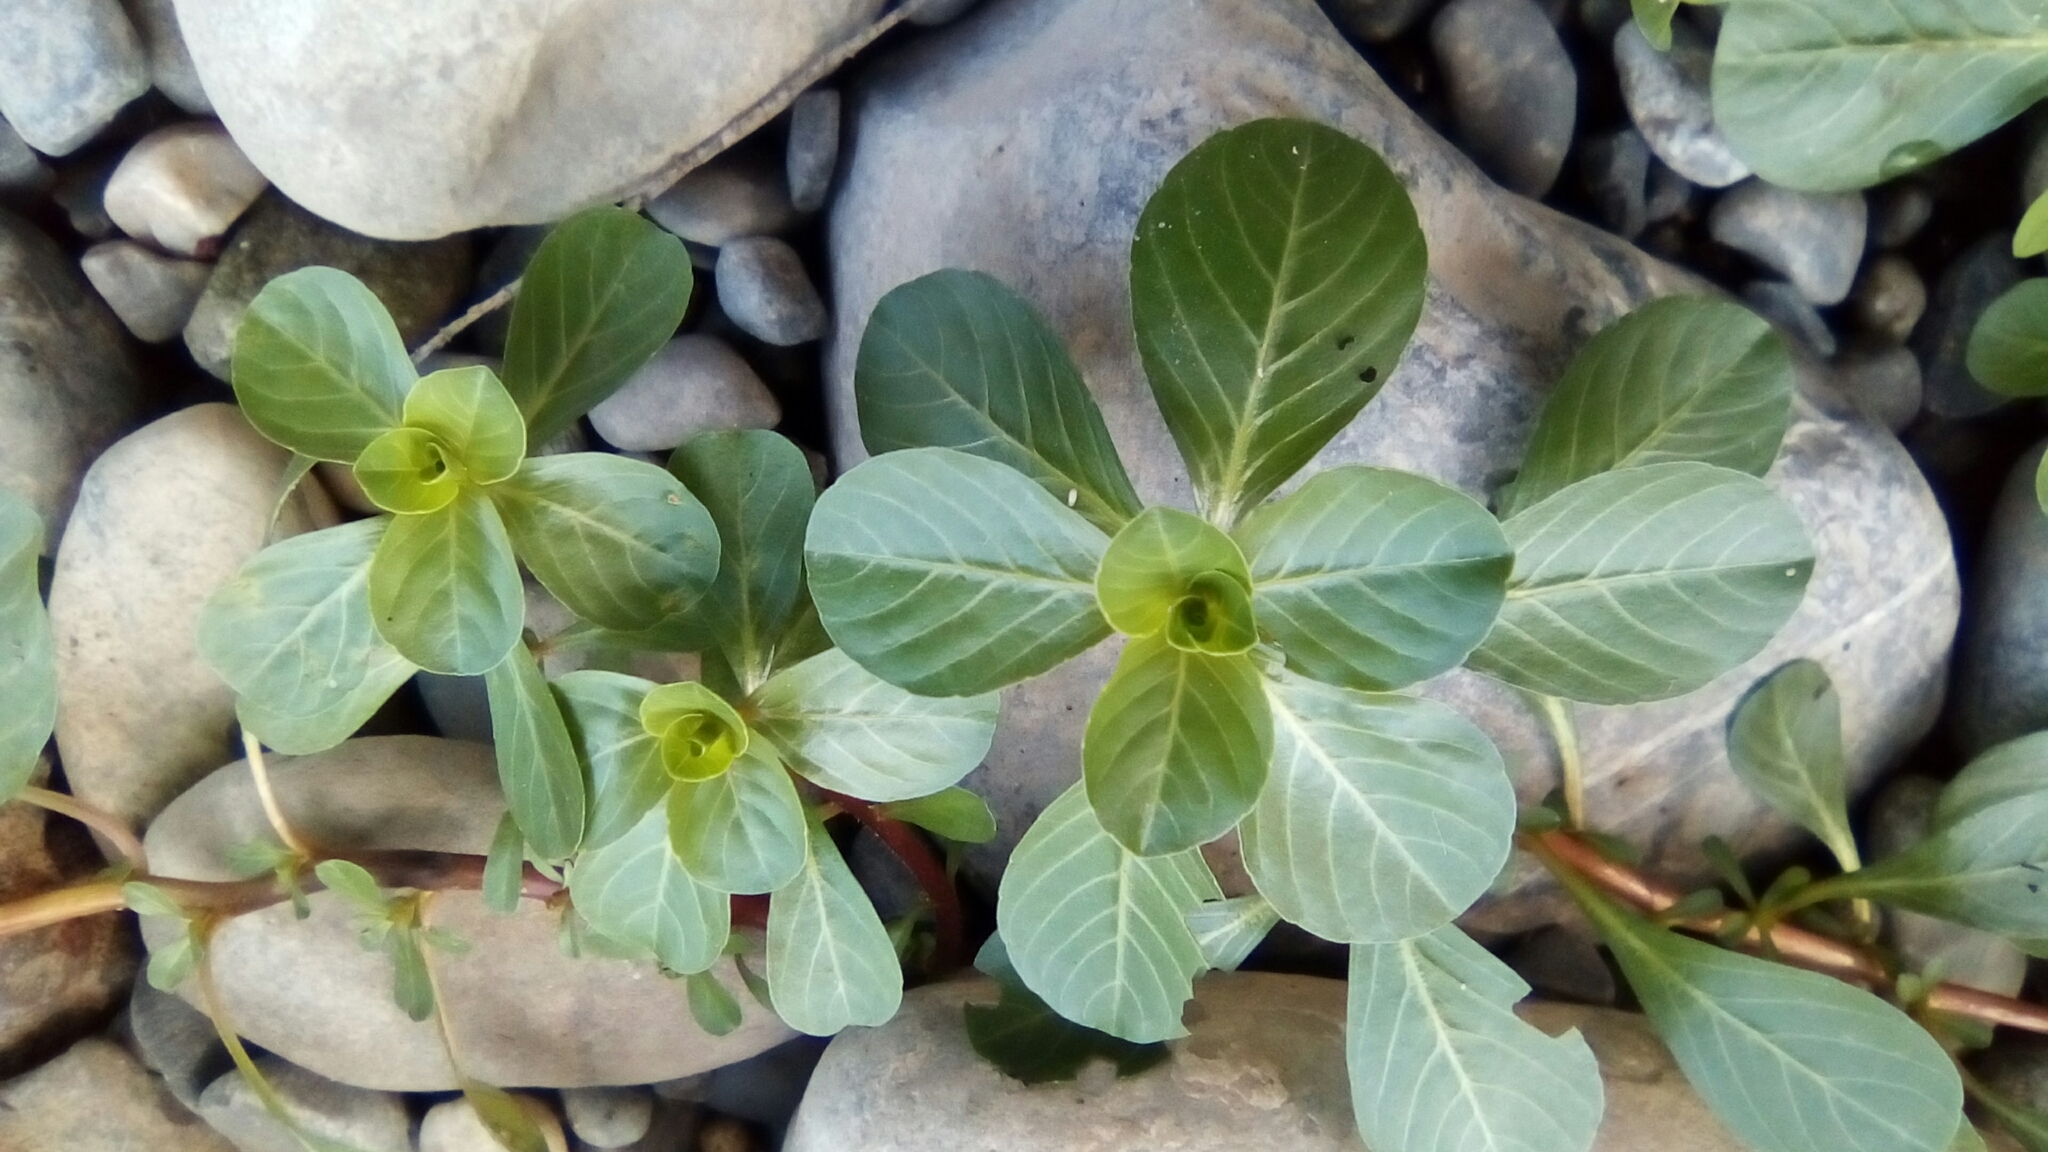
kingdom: Plantae
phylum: Tracheophyta
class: Magnoliopsida
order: Myrtales
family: Onagraceae
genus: Ludwigia
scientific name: Ludwigia peploides
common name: Floating primrose-willow
